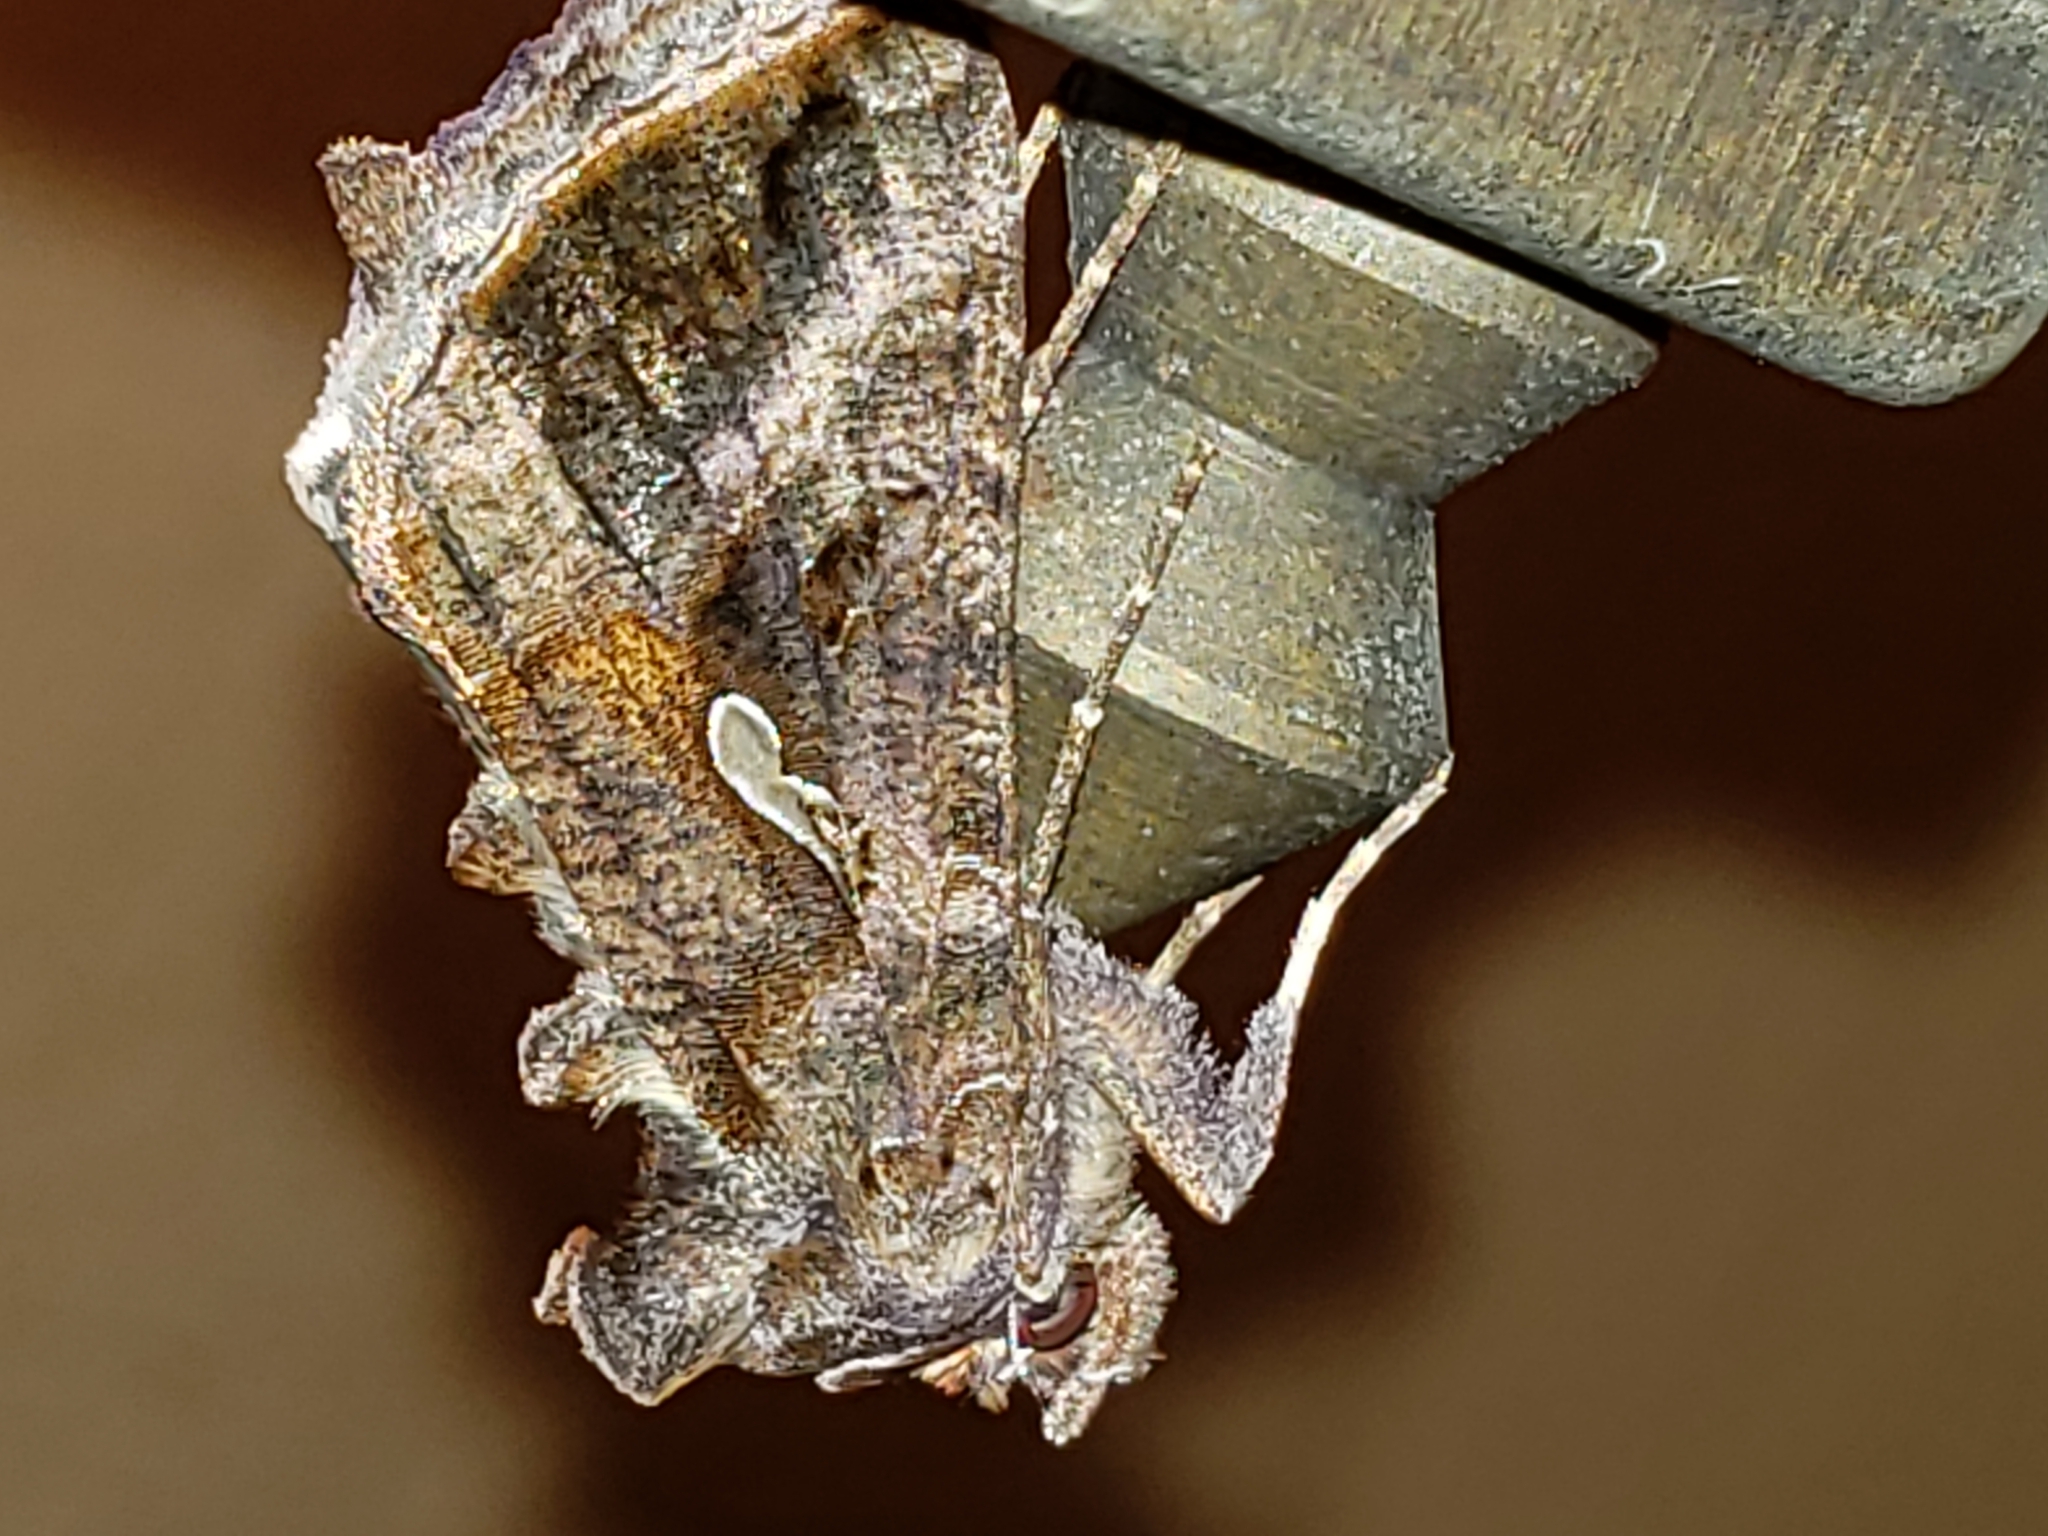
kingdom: Animalia
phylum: Arthropoda
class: Insecta
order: Lepidoptera
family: Noctuidae
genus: Autographa
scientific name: Autographa precationis
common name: Common looper moth
